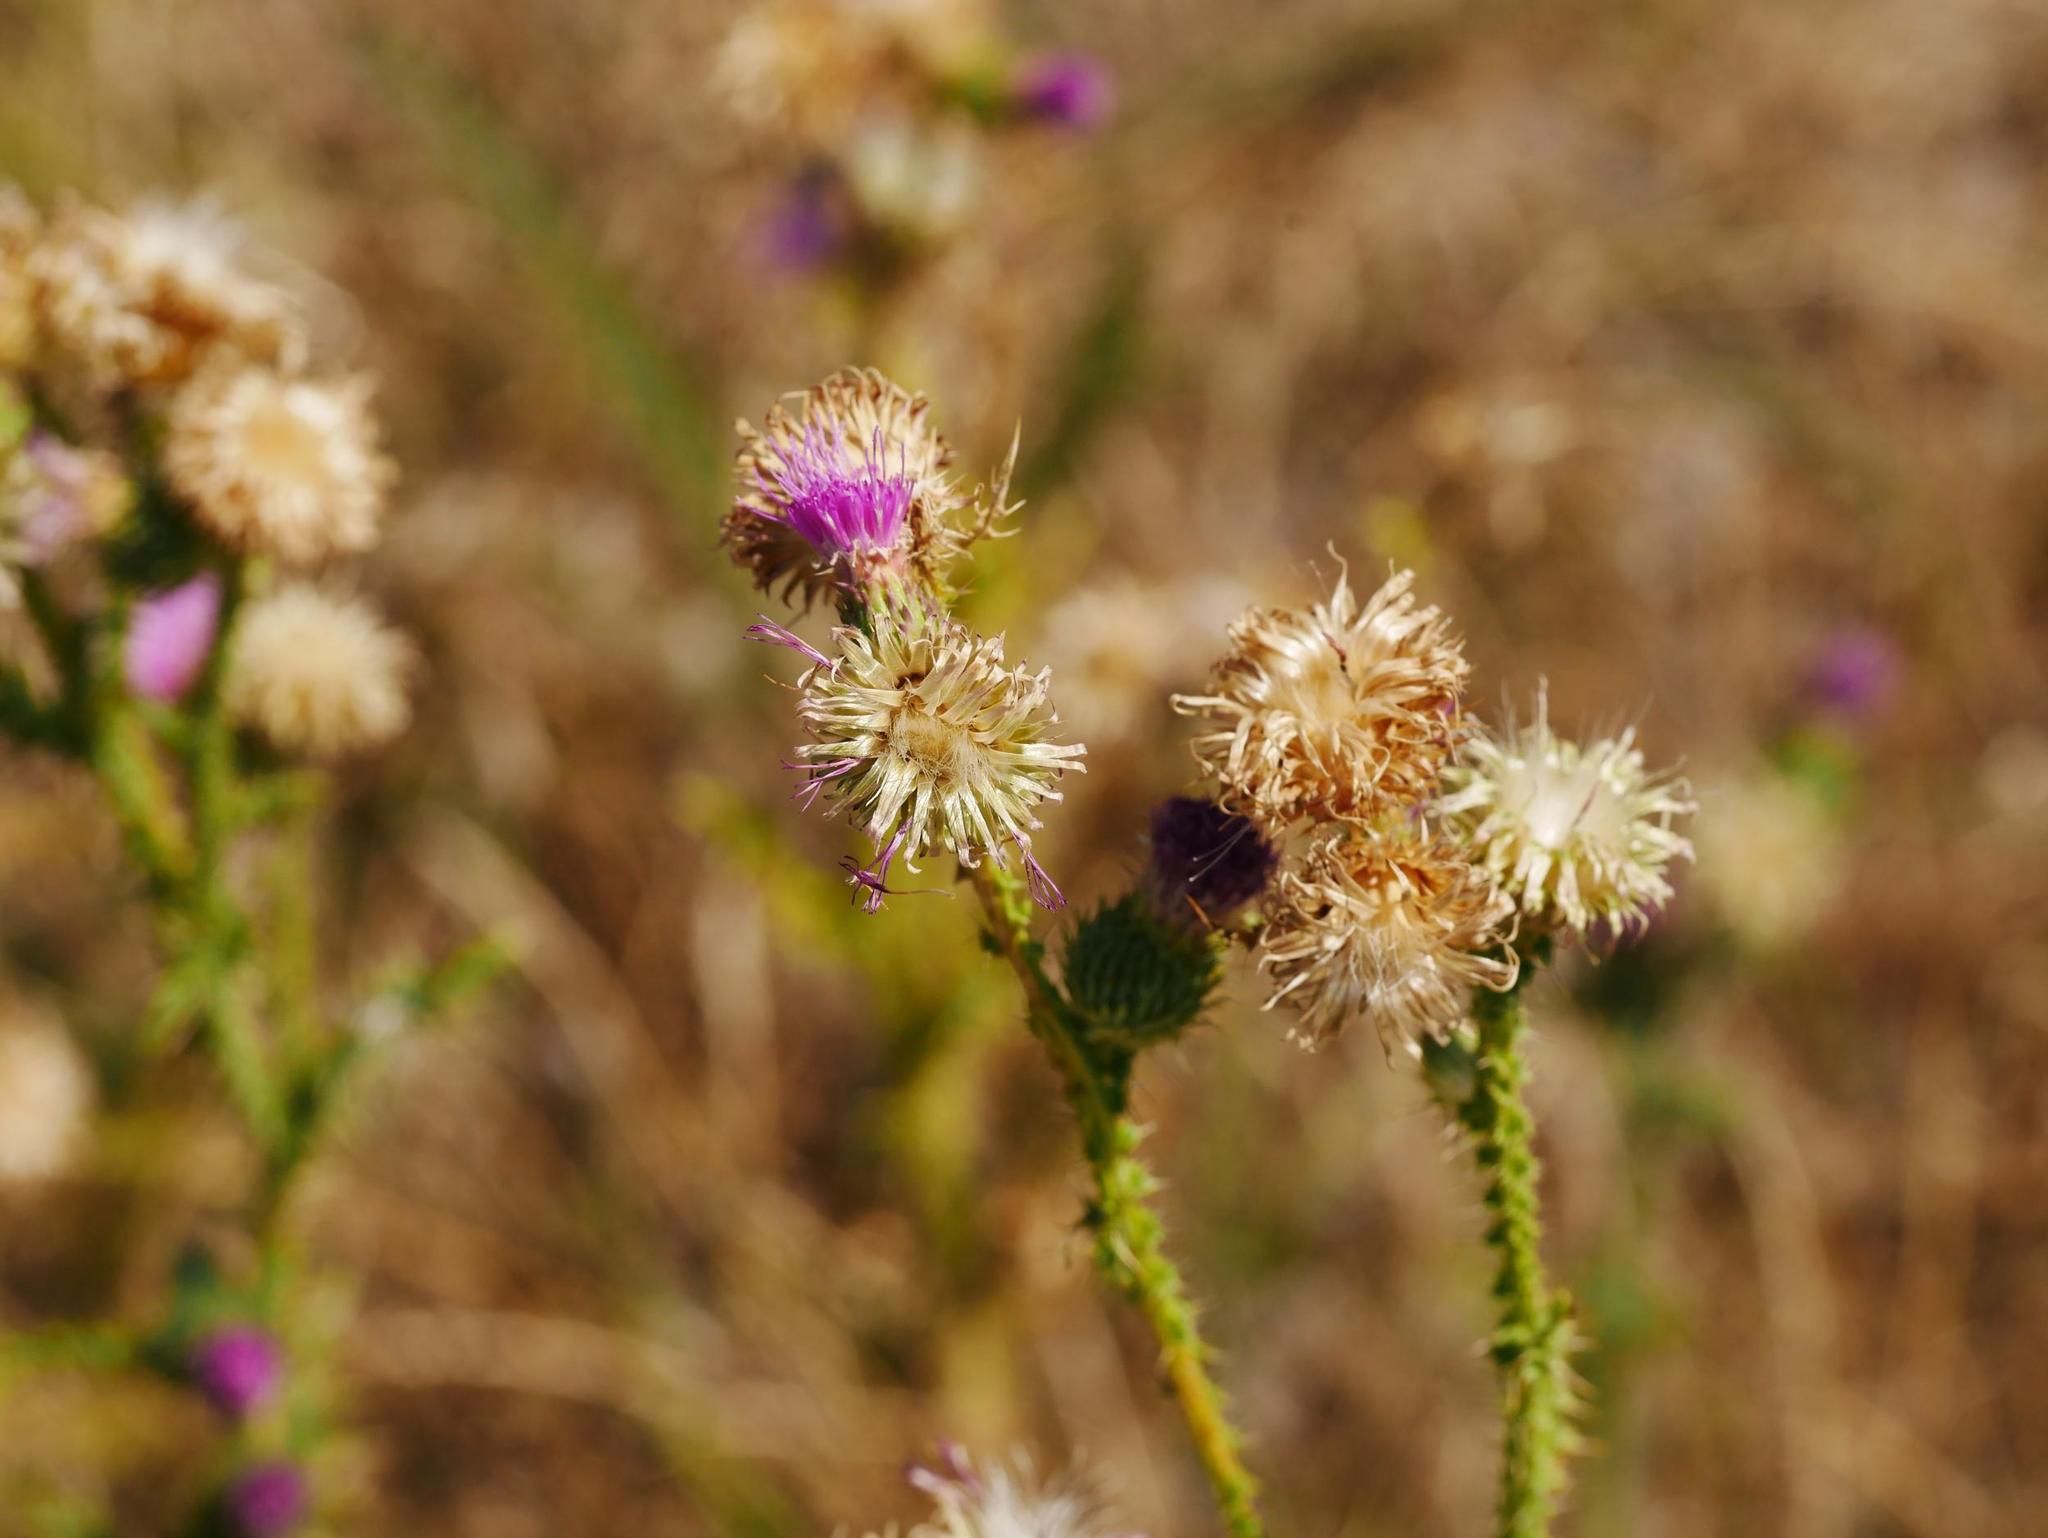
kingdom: Plantae
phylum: Tracheophyta
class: Magnoliopsida
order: Asterales
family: Asteraceae
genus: Carduus
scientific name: Carduus acanthoides
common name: Plumeless thistle
